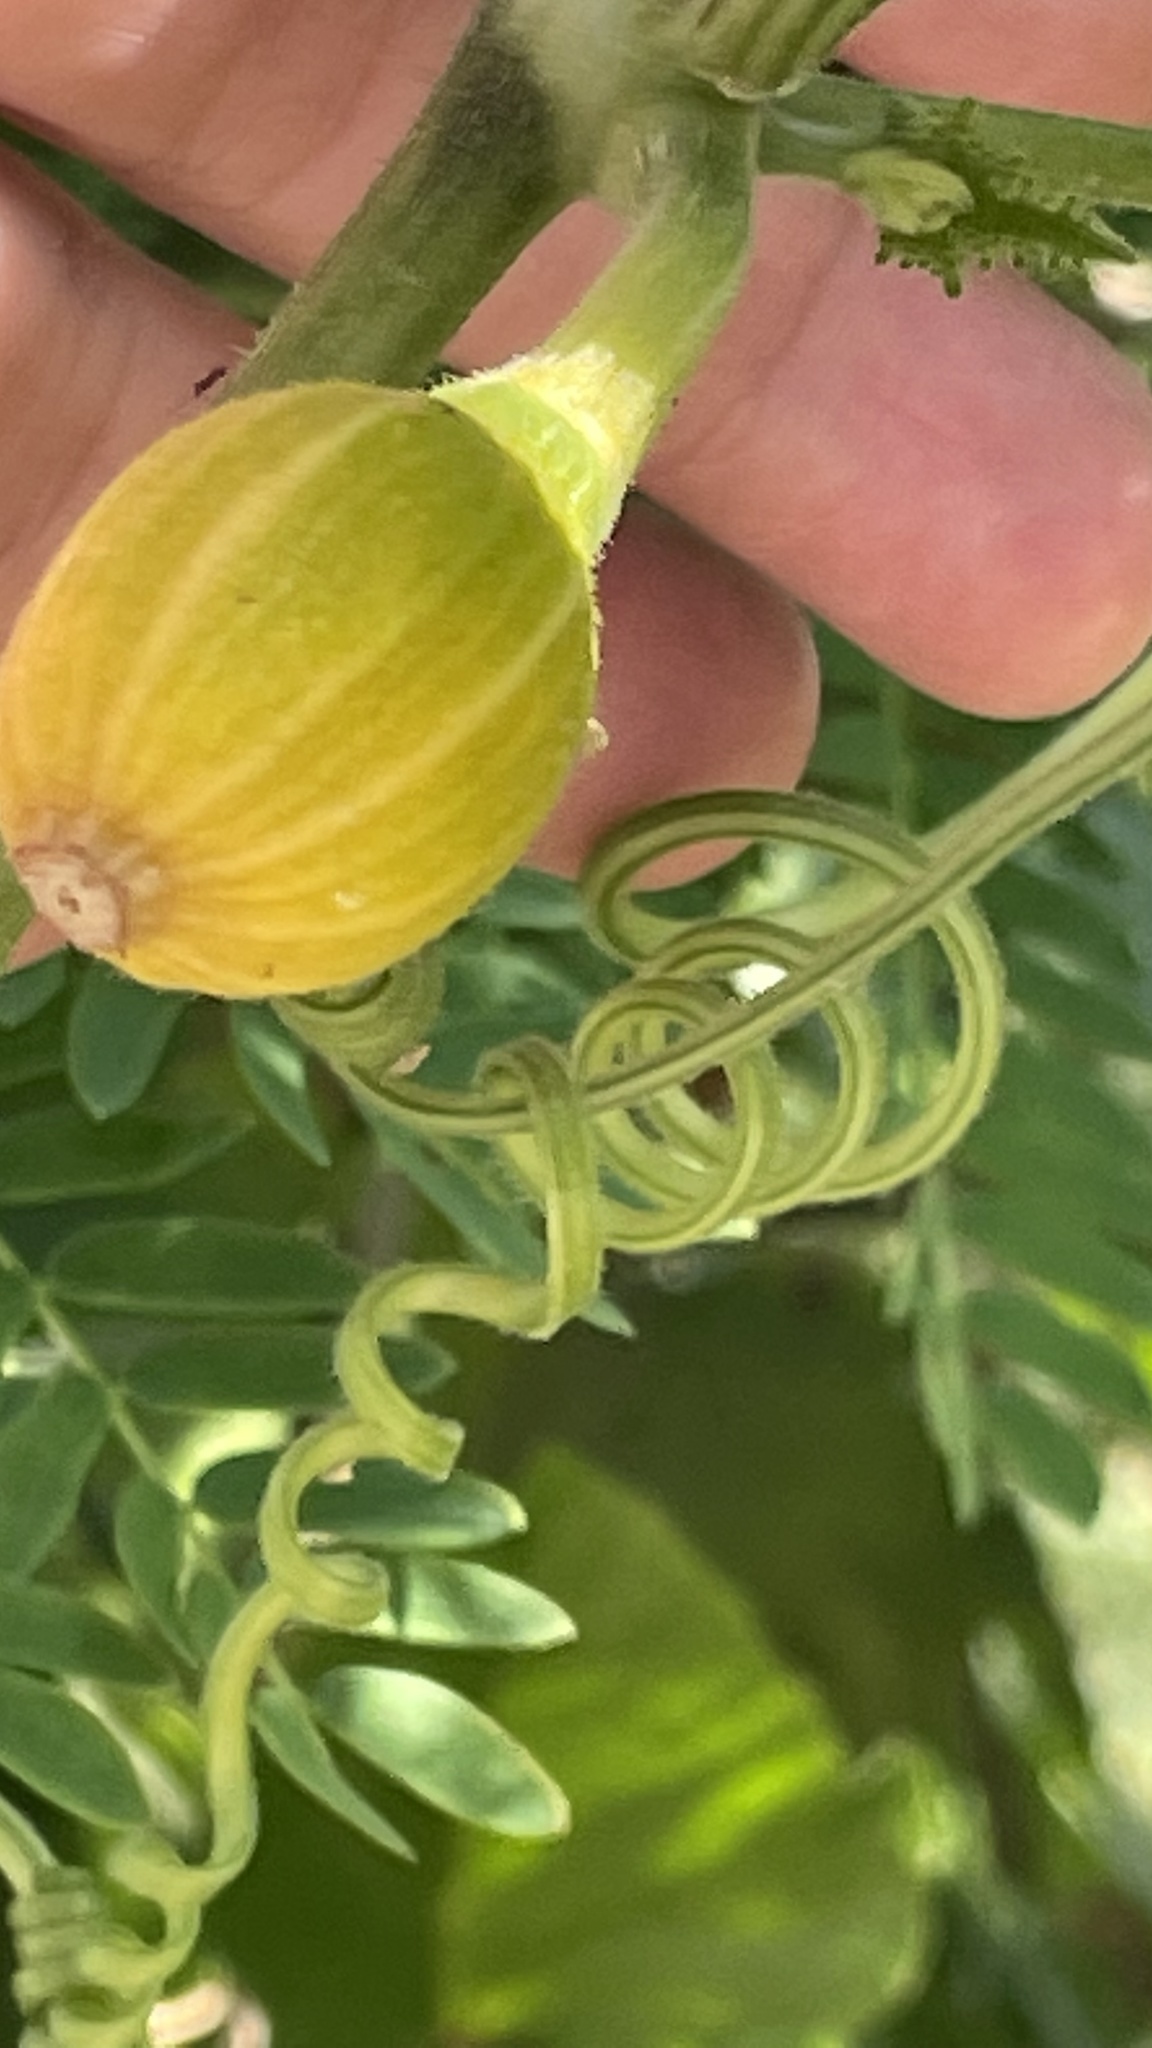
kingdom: Plantae
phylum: Tracheophyta
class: Magnoliopsida
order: Cucurbitales
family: Cucurbitaceae
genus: Melothria
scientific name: Melothria pendula
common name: Creeping-cucumber
